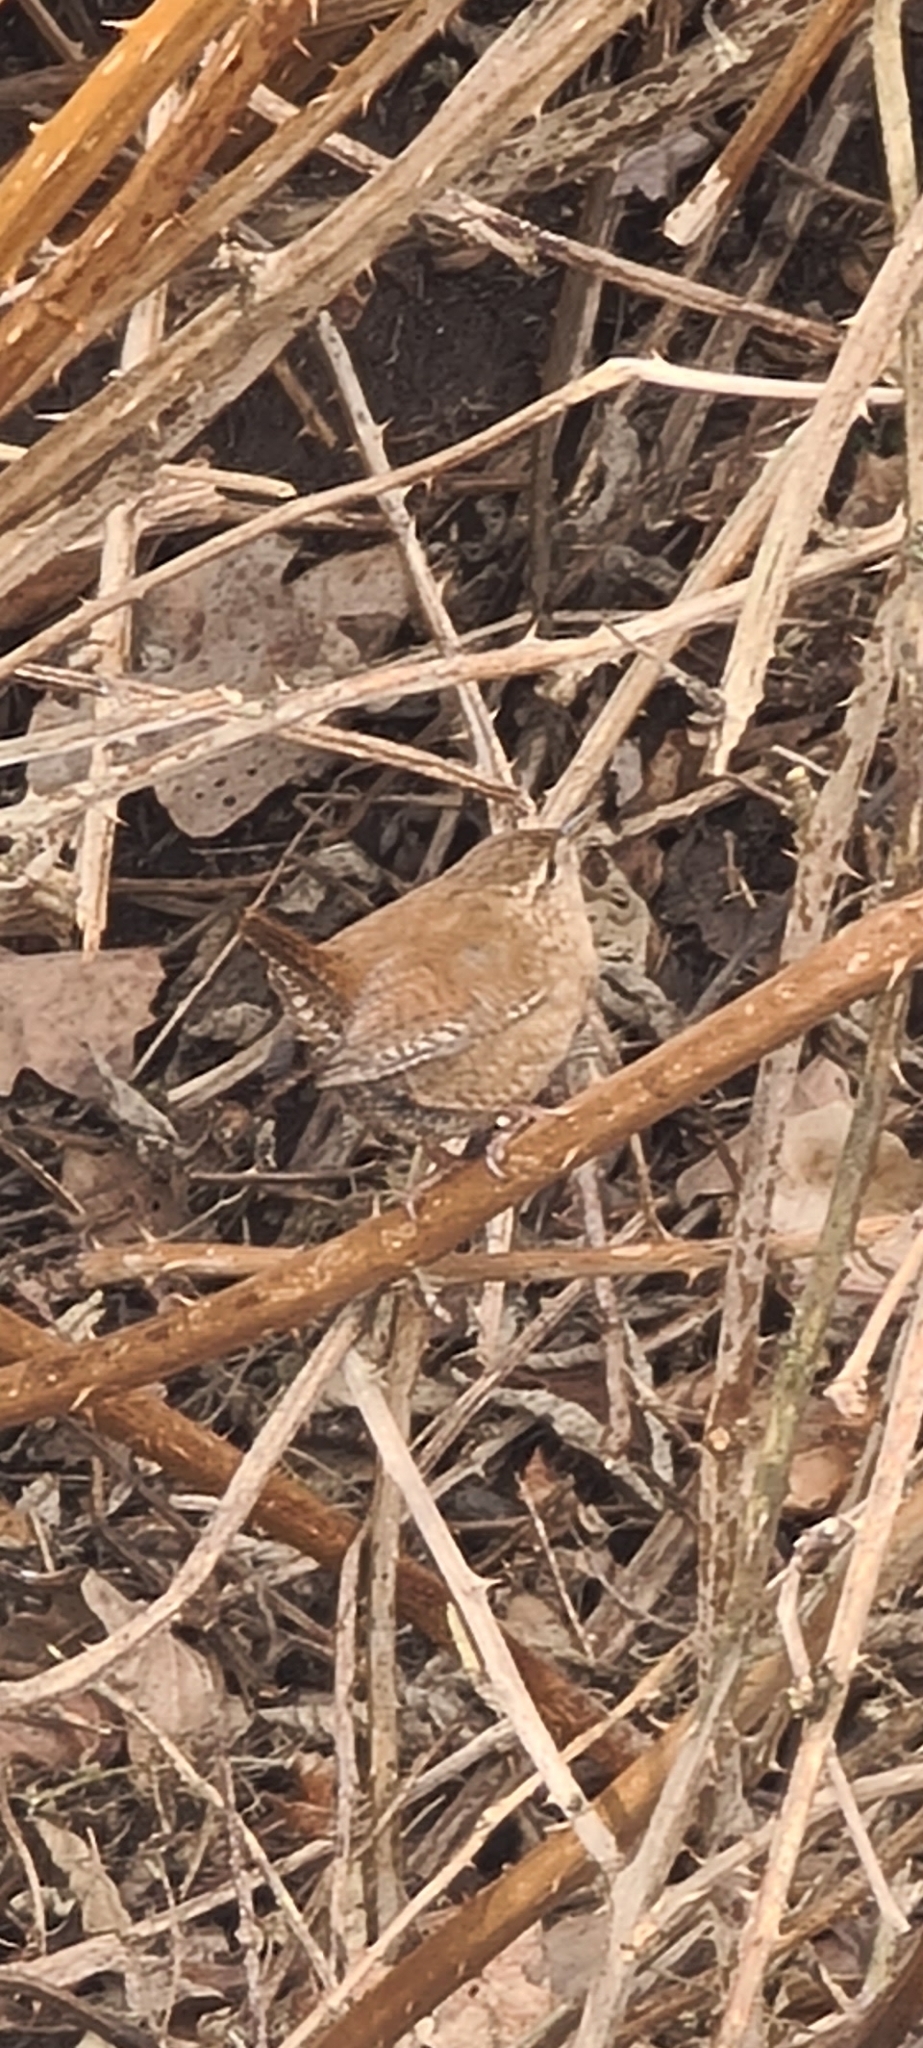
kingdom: Animalia
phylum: Chordata
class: Aves
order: Passeriformes
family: Troglodytidae
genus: Troglodytes
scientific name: Troglodytes troglodytes
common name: Eurasian wren
